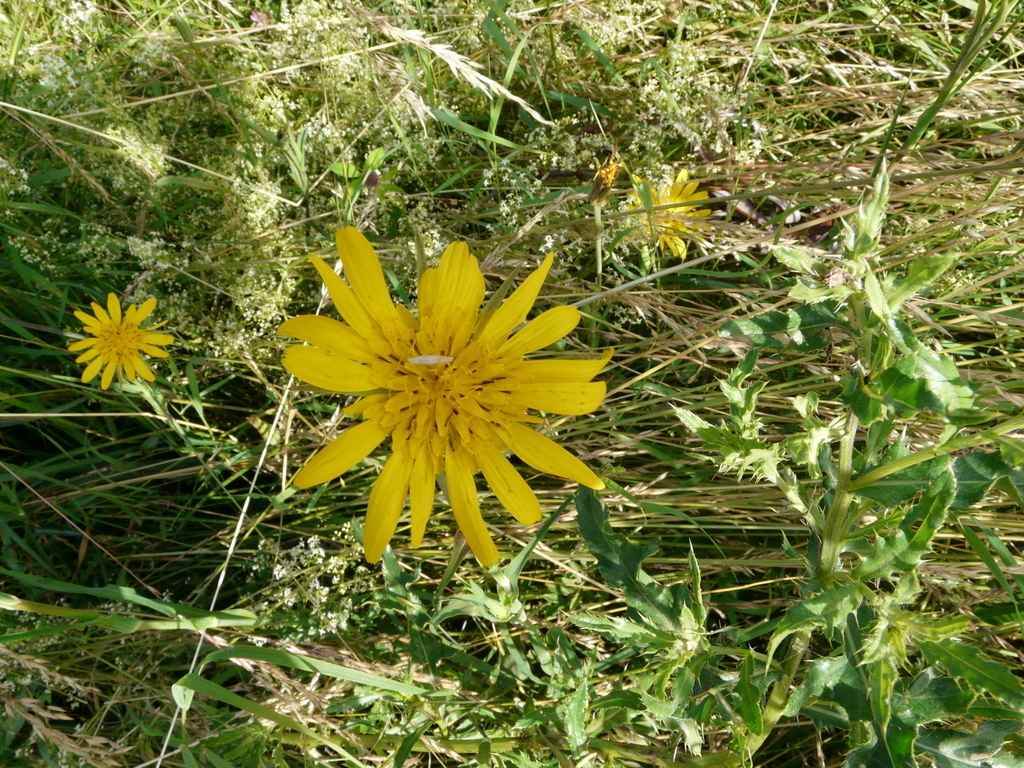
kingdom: Plantae
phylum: Tracheophyta
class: Magnoliopsida
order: Asterales
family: Asteraceae
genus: Tragopogon
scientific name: Tragopogon pratensis
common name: Goat's-beard
